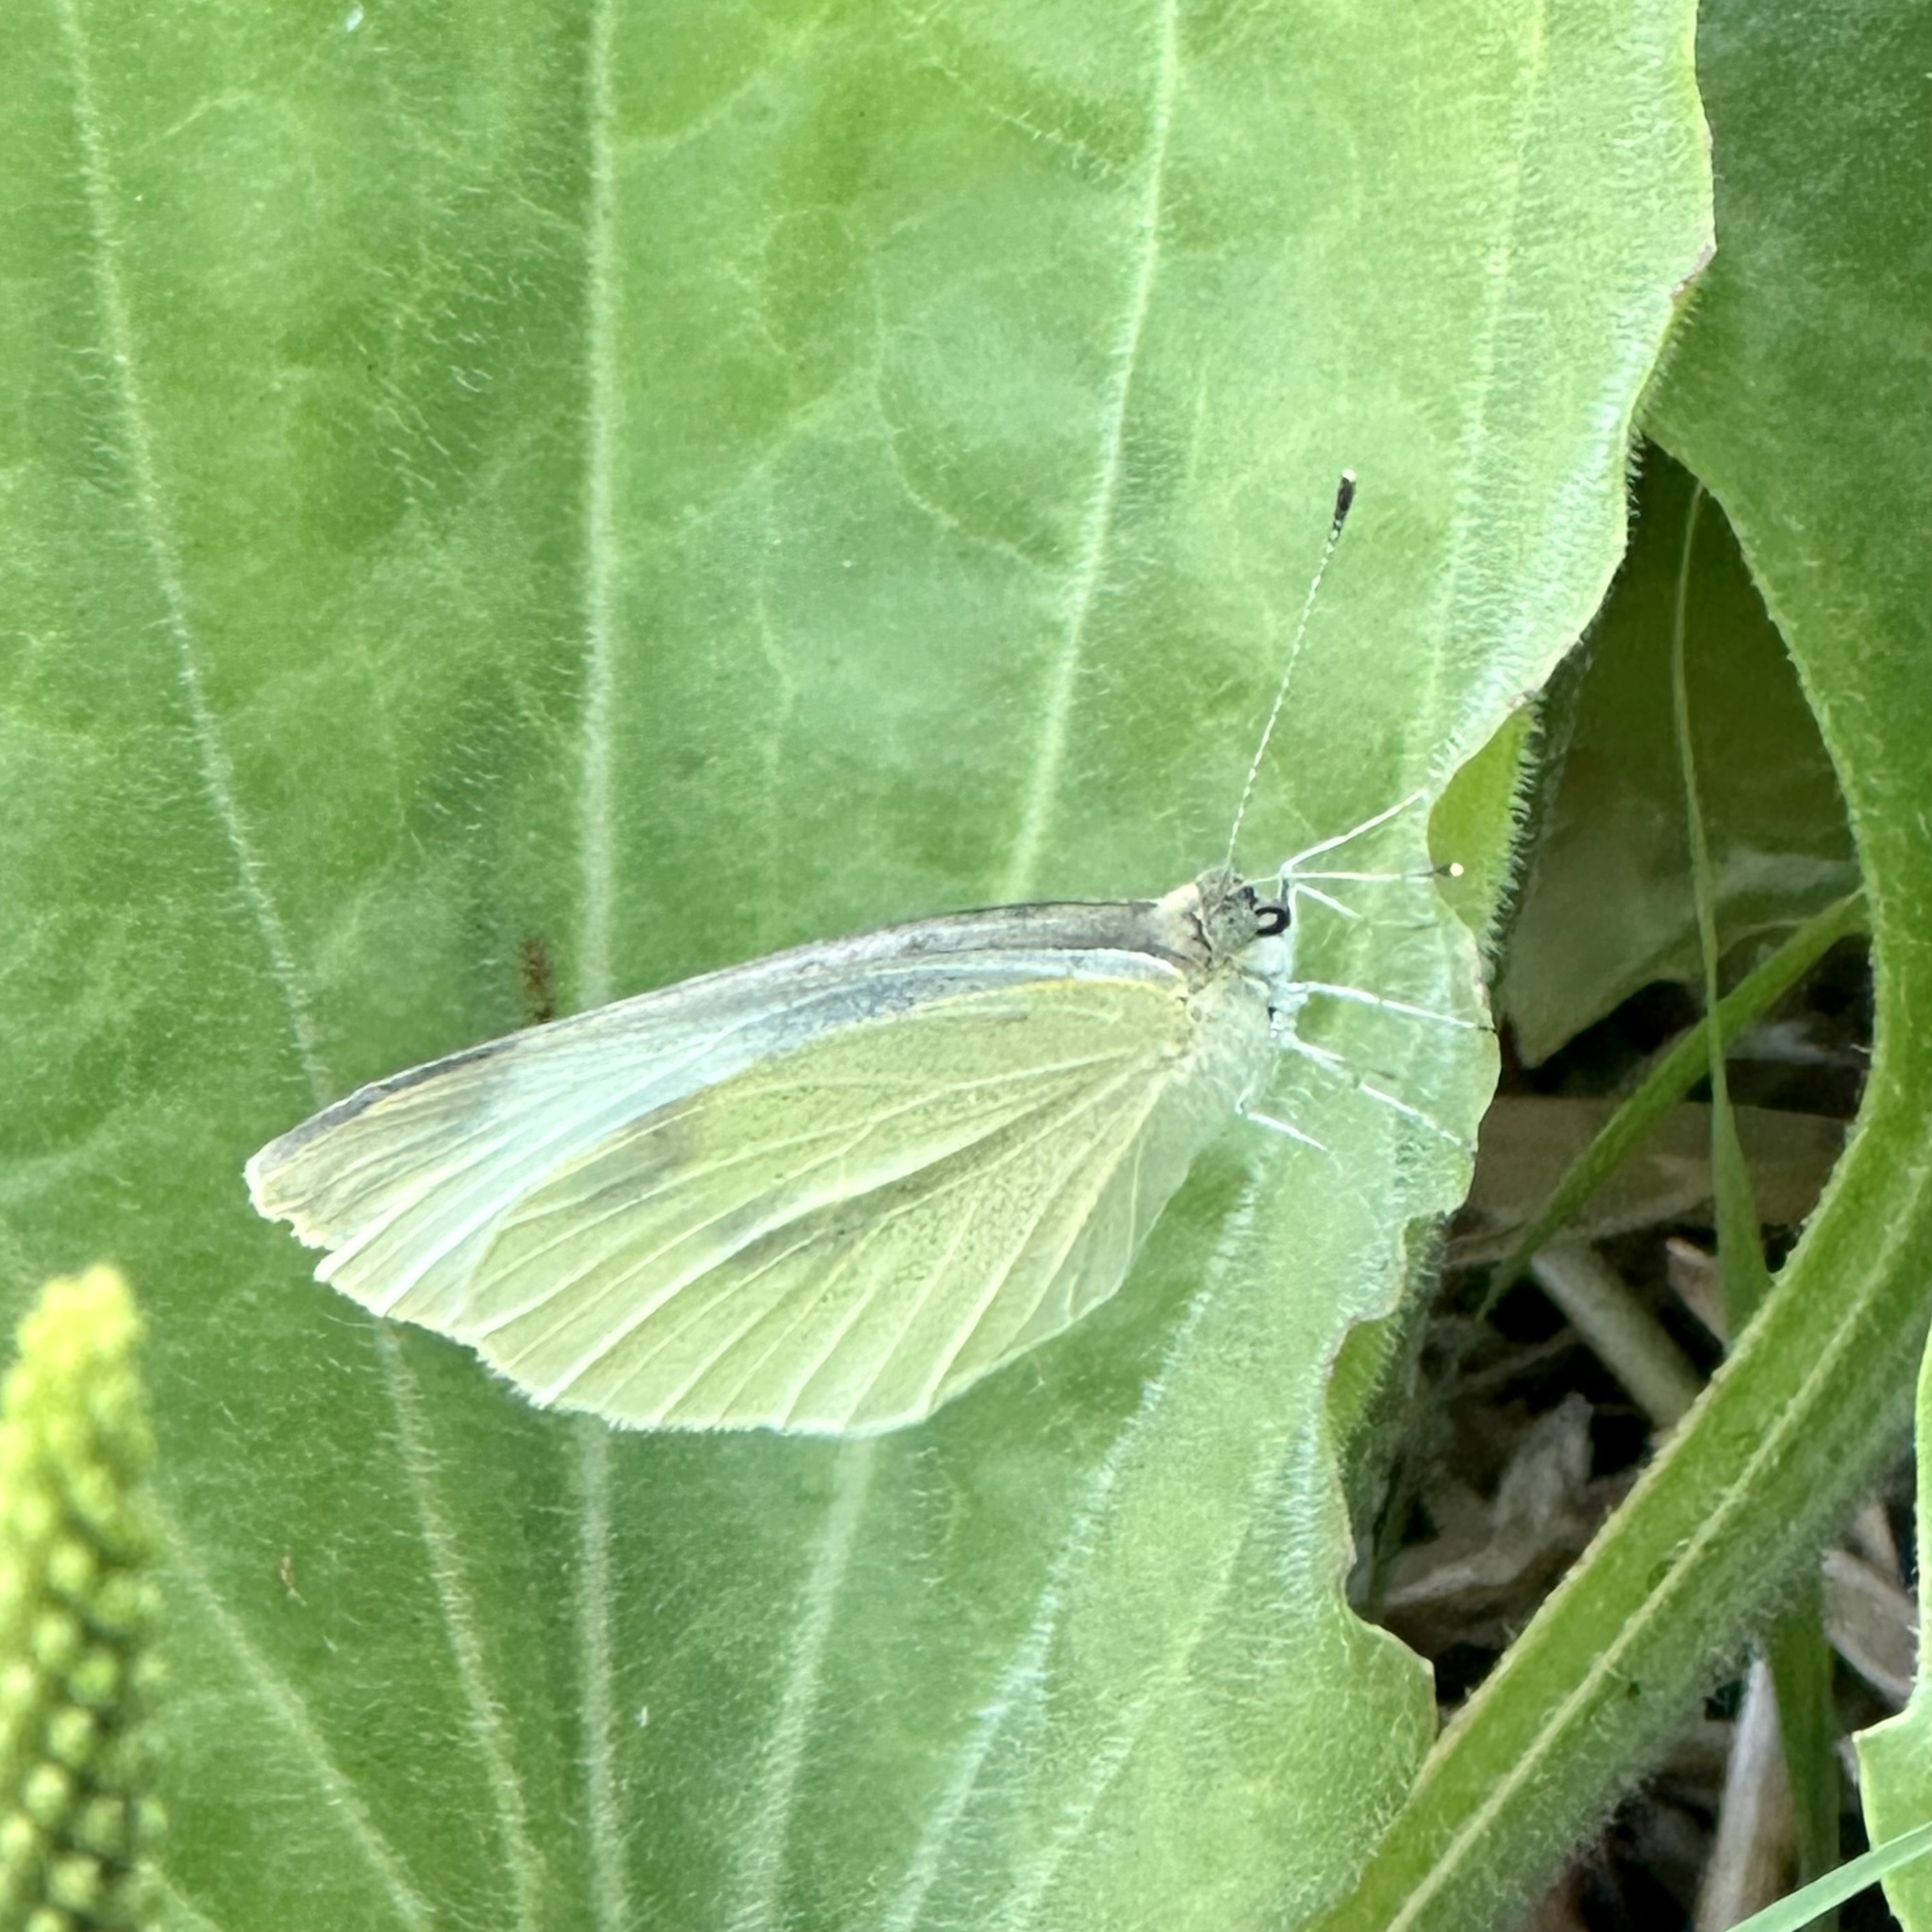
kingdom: Animalia
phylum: Arthropoda
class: Insecta
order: Lepidoptera
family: Pieridae
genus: Pieris
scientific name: Pieris rapae
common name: Small white
